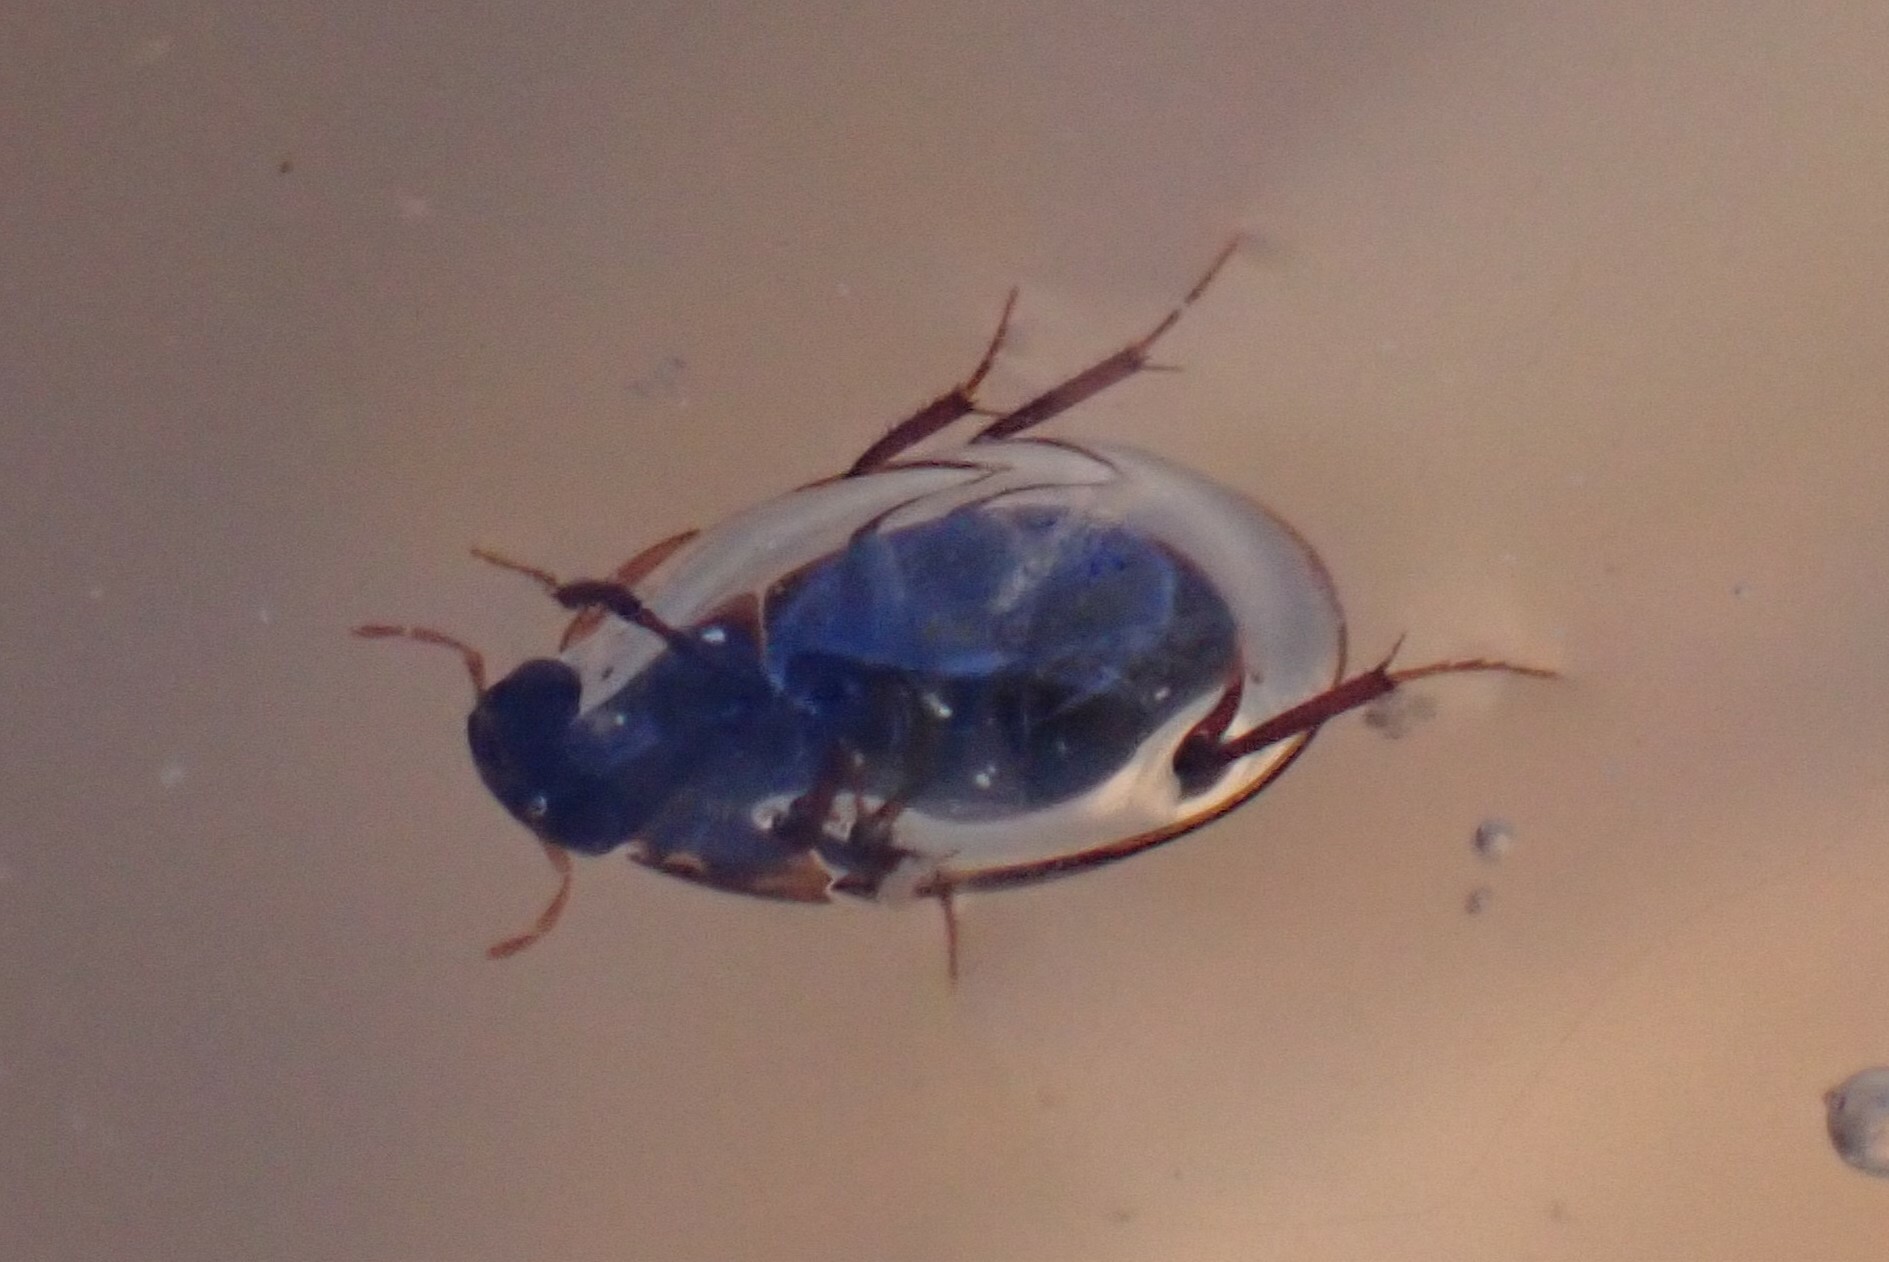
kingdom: Animalia
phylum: Arthropoda
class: Insecta
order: Coleoptera
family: Hydrophilidae
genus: Cymbiodyta
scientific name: Cymbiodyta
